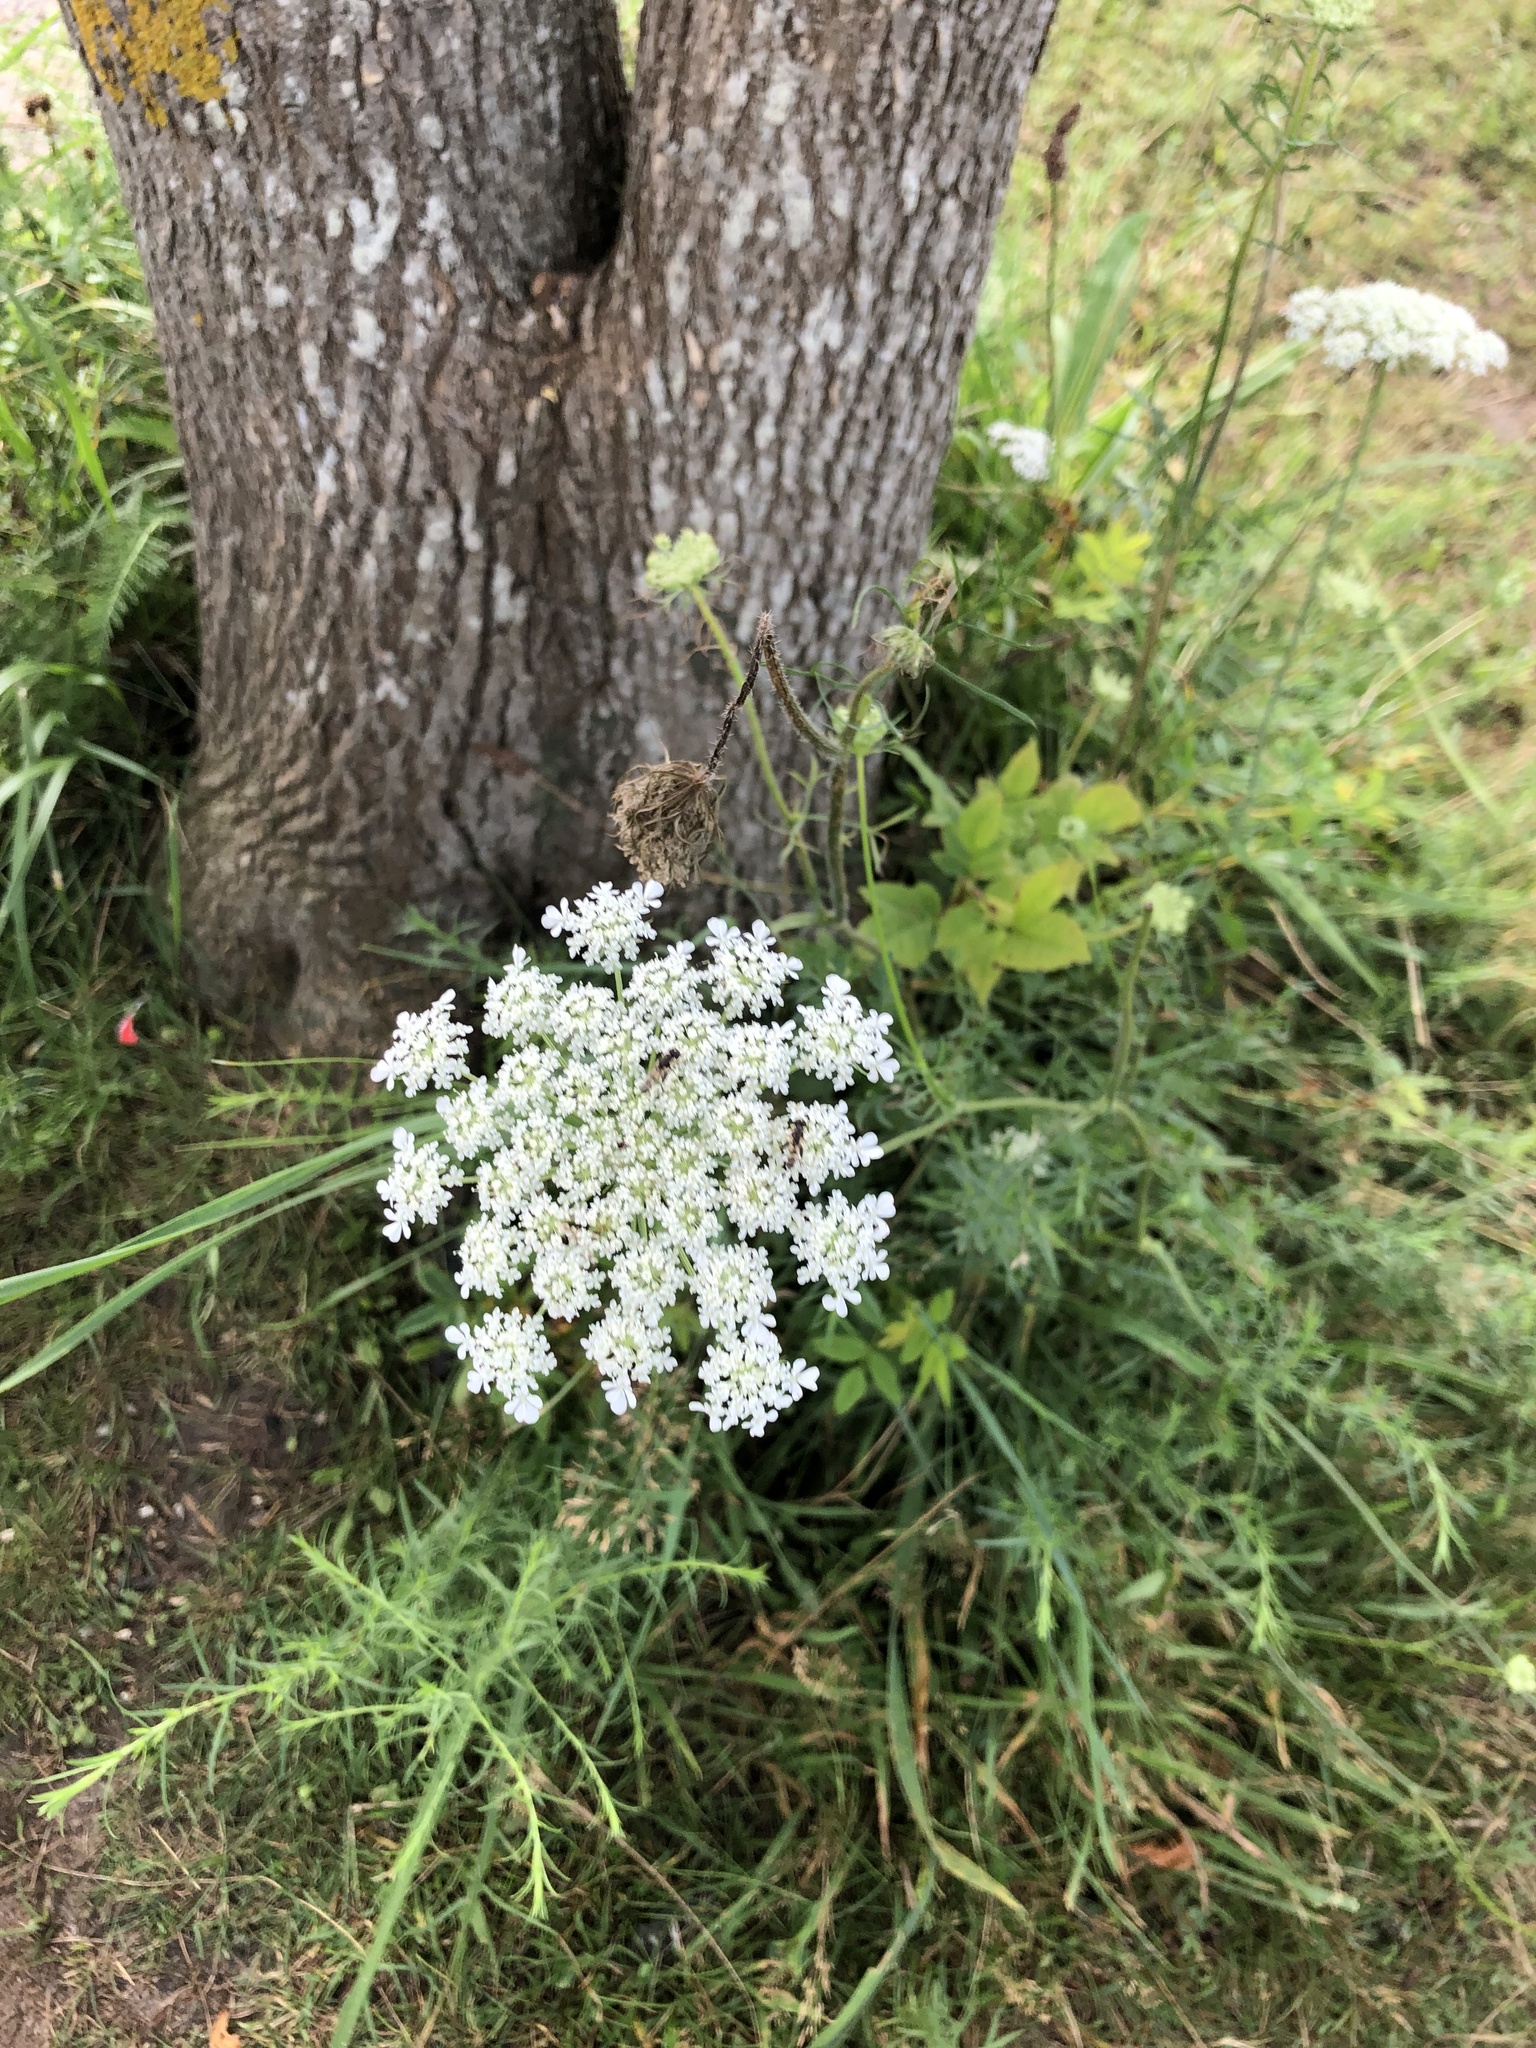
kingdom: Plantae
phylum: Tracheophyta
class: Magnoliopsida
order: Apiales
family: Apiaceae
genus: Daucus
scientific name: Daucus carota
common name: Wild carrot
